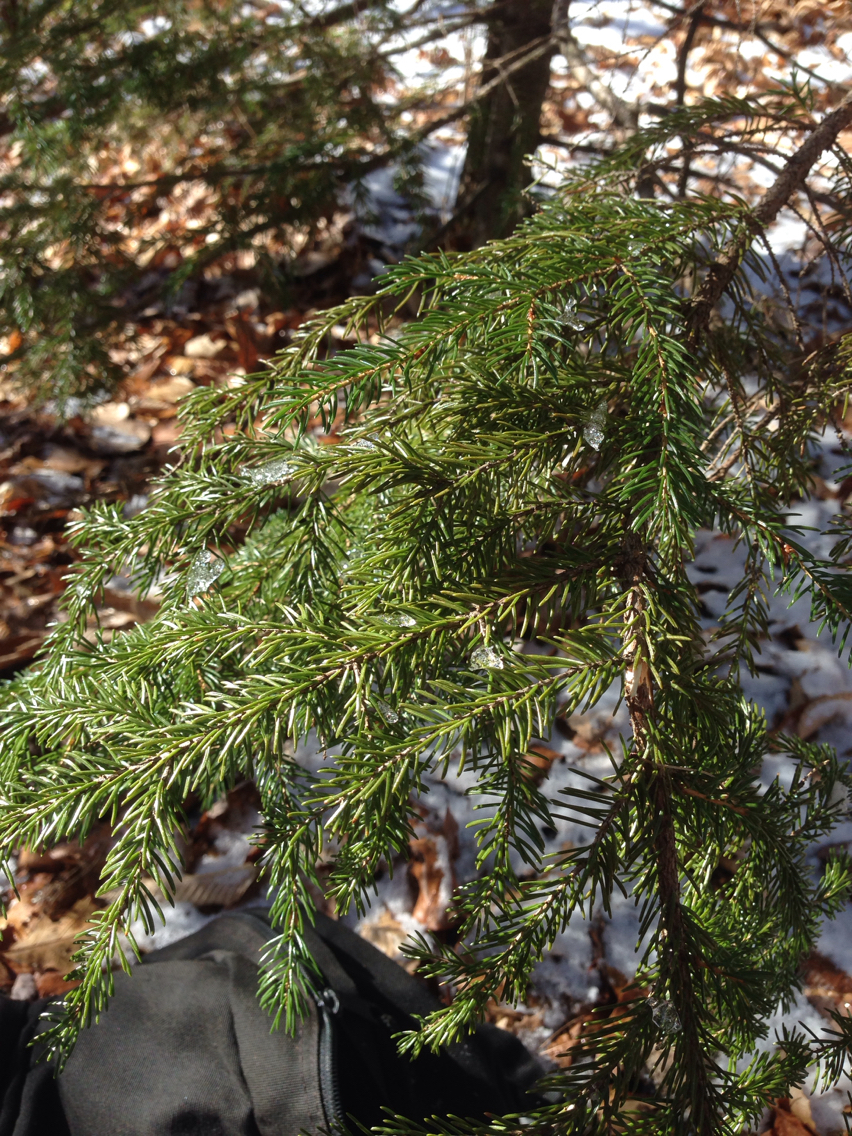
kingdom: Plantae
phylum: Tracheophyta
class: Pinopsida
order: Pinales
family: Pinaceae
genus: Picea
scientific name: Picea rubens
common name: Red spruce
